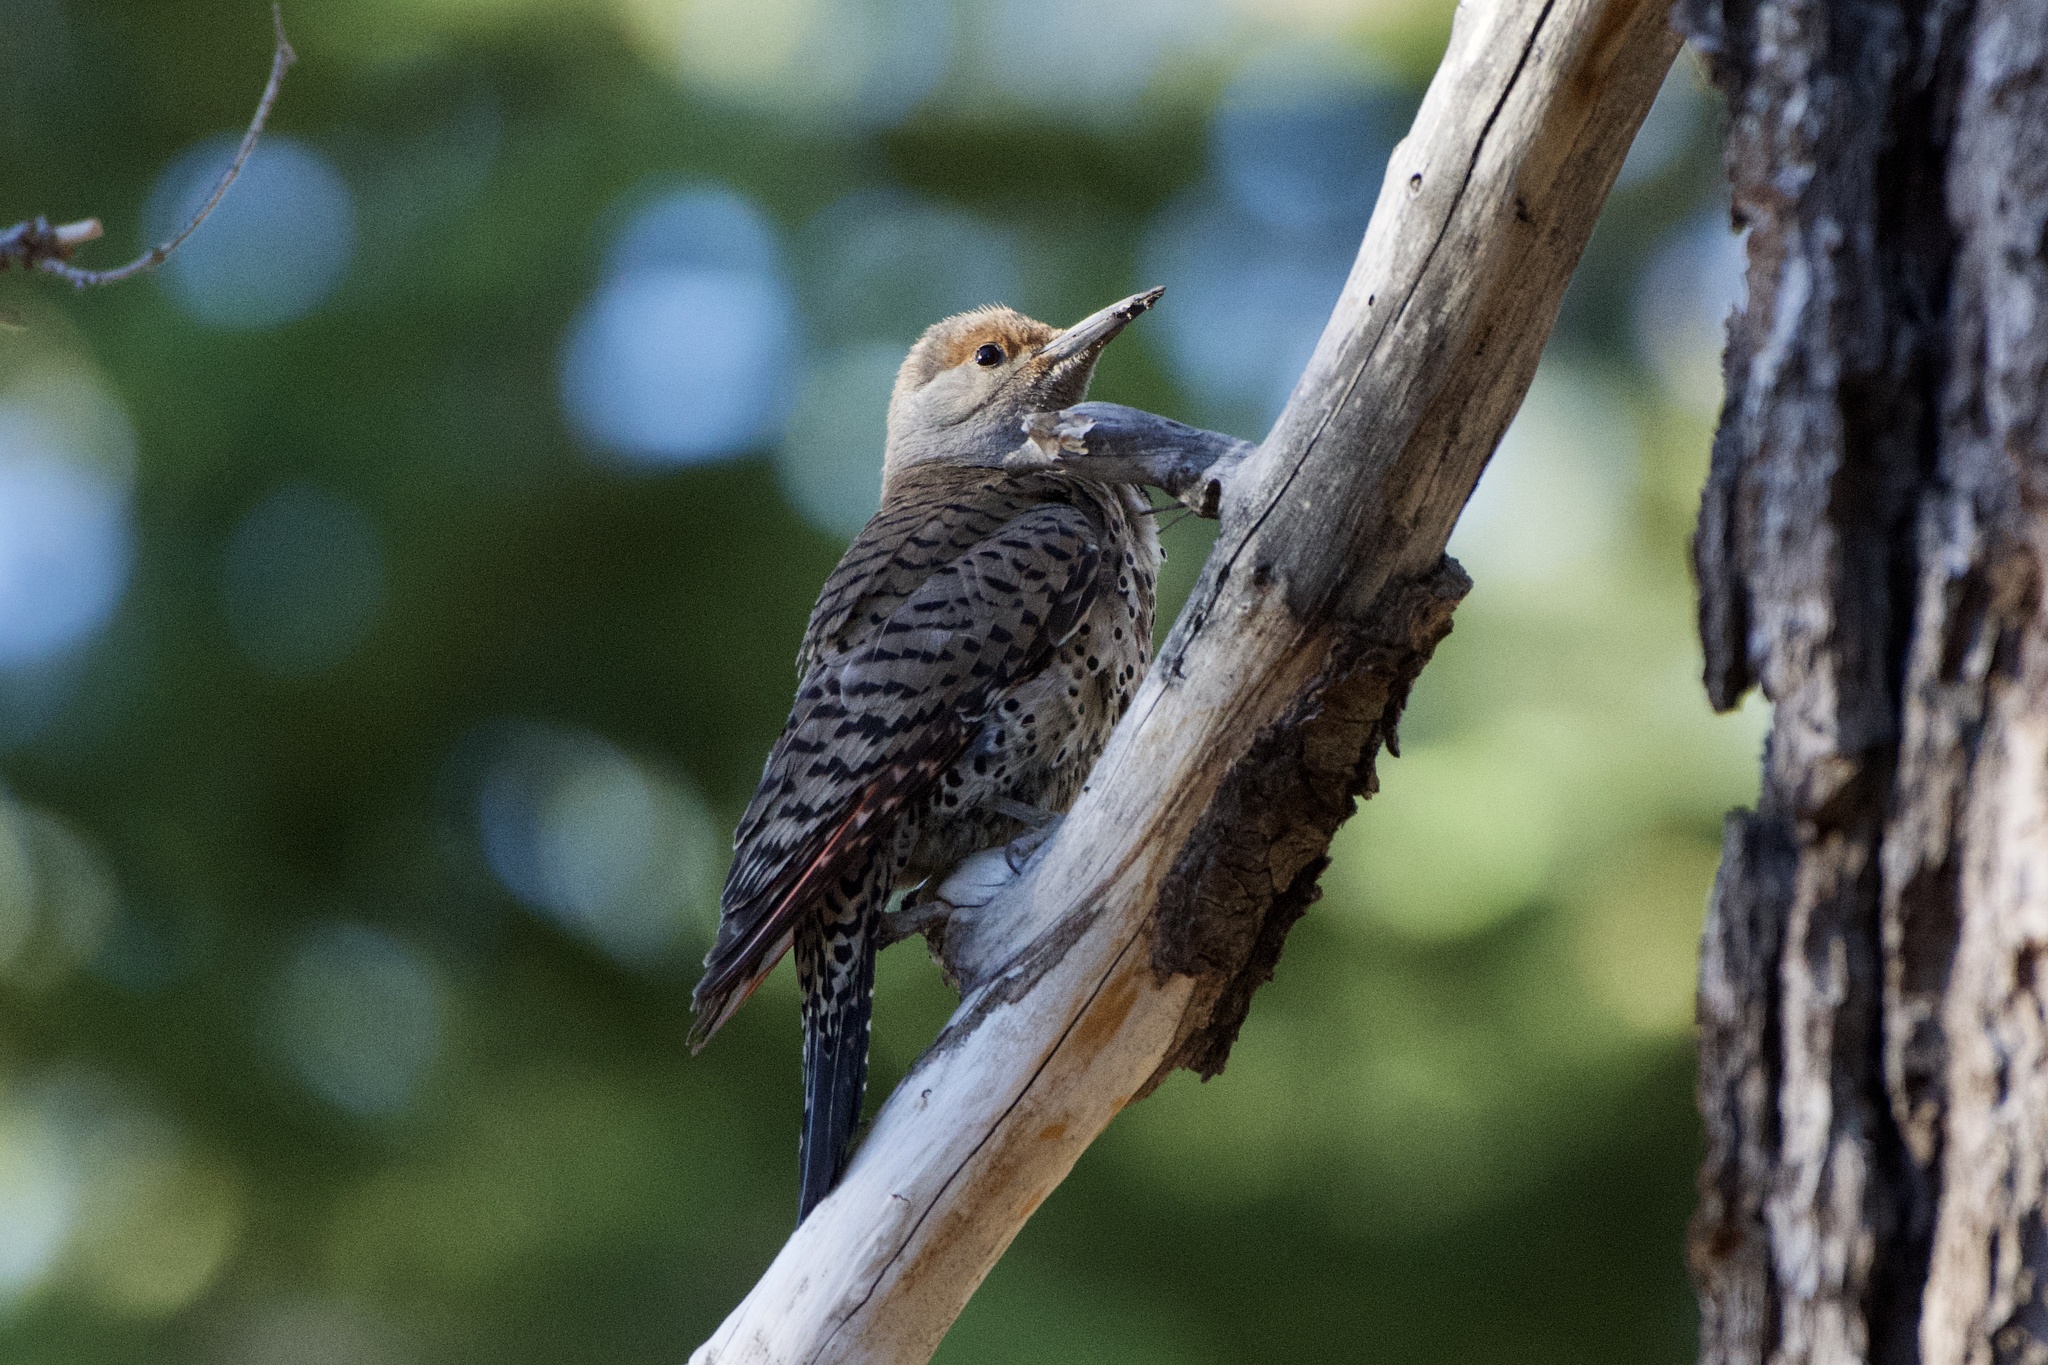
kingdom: Animalia
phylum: Chordata
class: Aves
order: Piciformes
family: Picidae
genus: Colaptes
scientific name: Colaptes auratus
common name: Northern flicker
